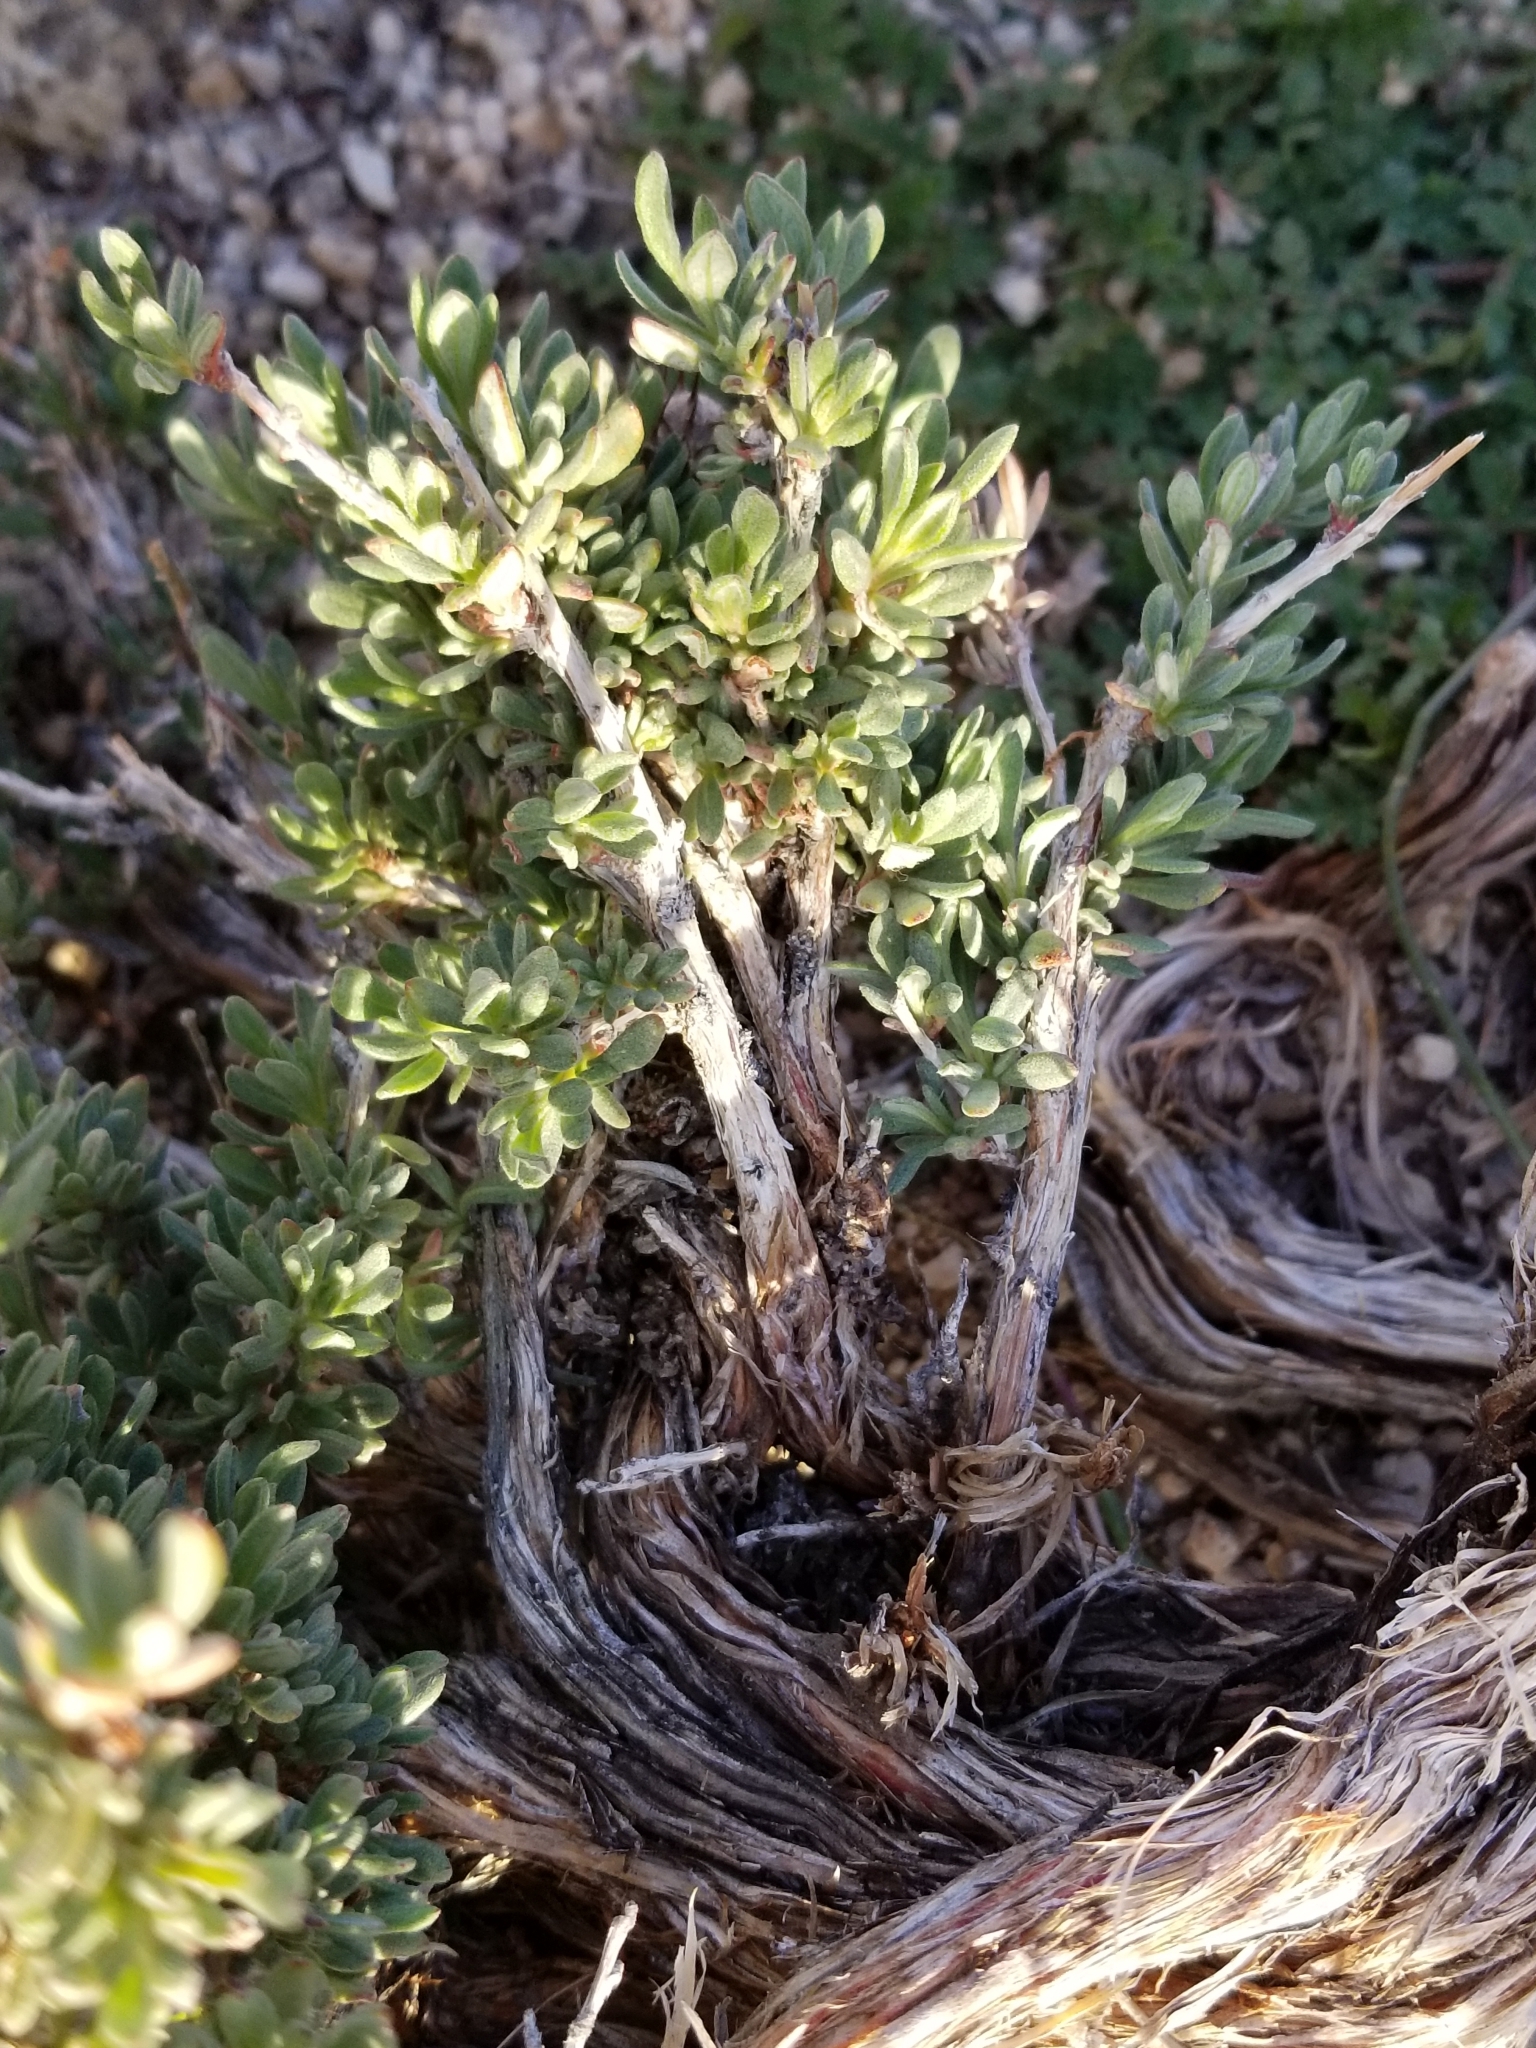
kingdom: Plantae
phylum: Tracheophyta
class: Magnoliopsida
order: Caryophyllales
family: Polygonaceae
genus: Eriogonum
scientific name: Eriogonum fasciculatum
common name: California wild buckwheat
